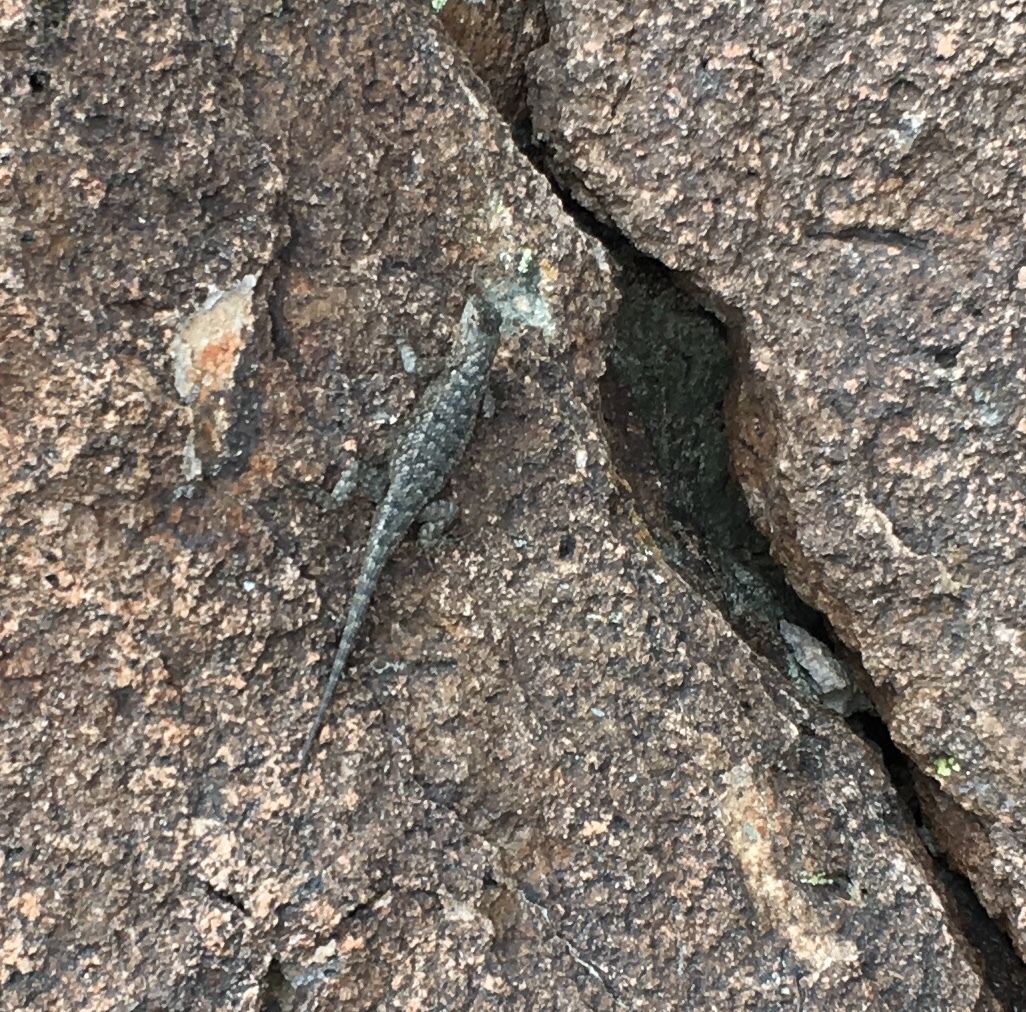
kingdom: Animalia
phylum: Chordata
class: Squamata
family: Phrynosomatidae
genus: Sceloporus
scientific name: Sceloporus occidentalis
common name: Western fence lizard
